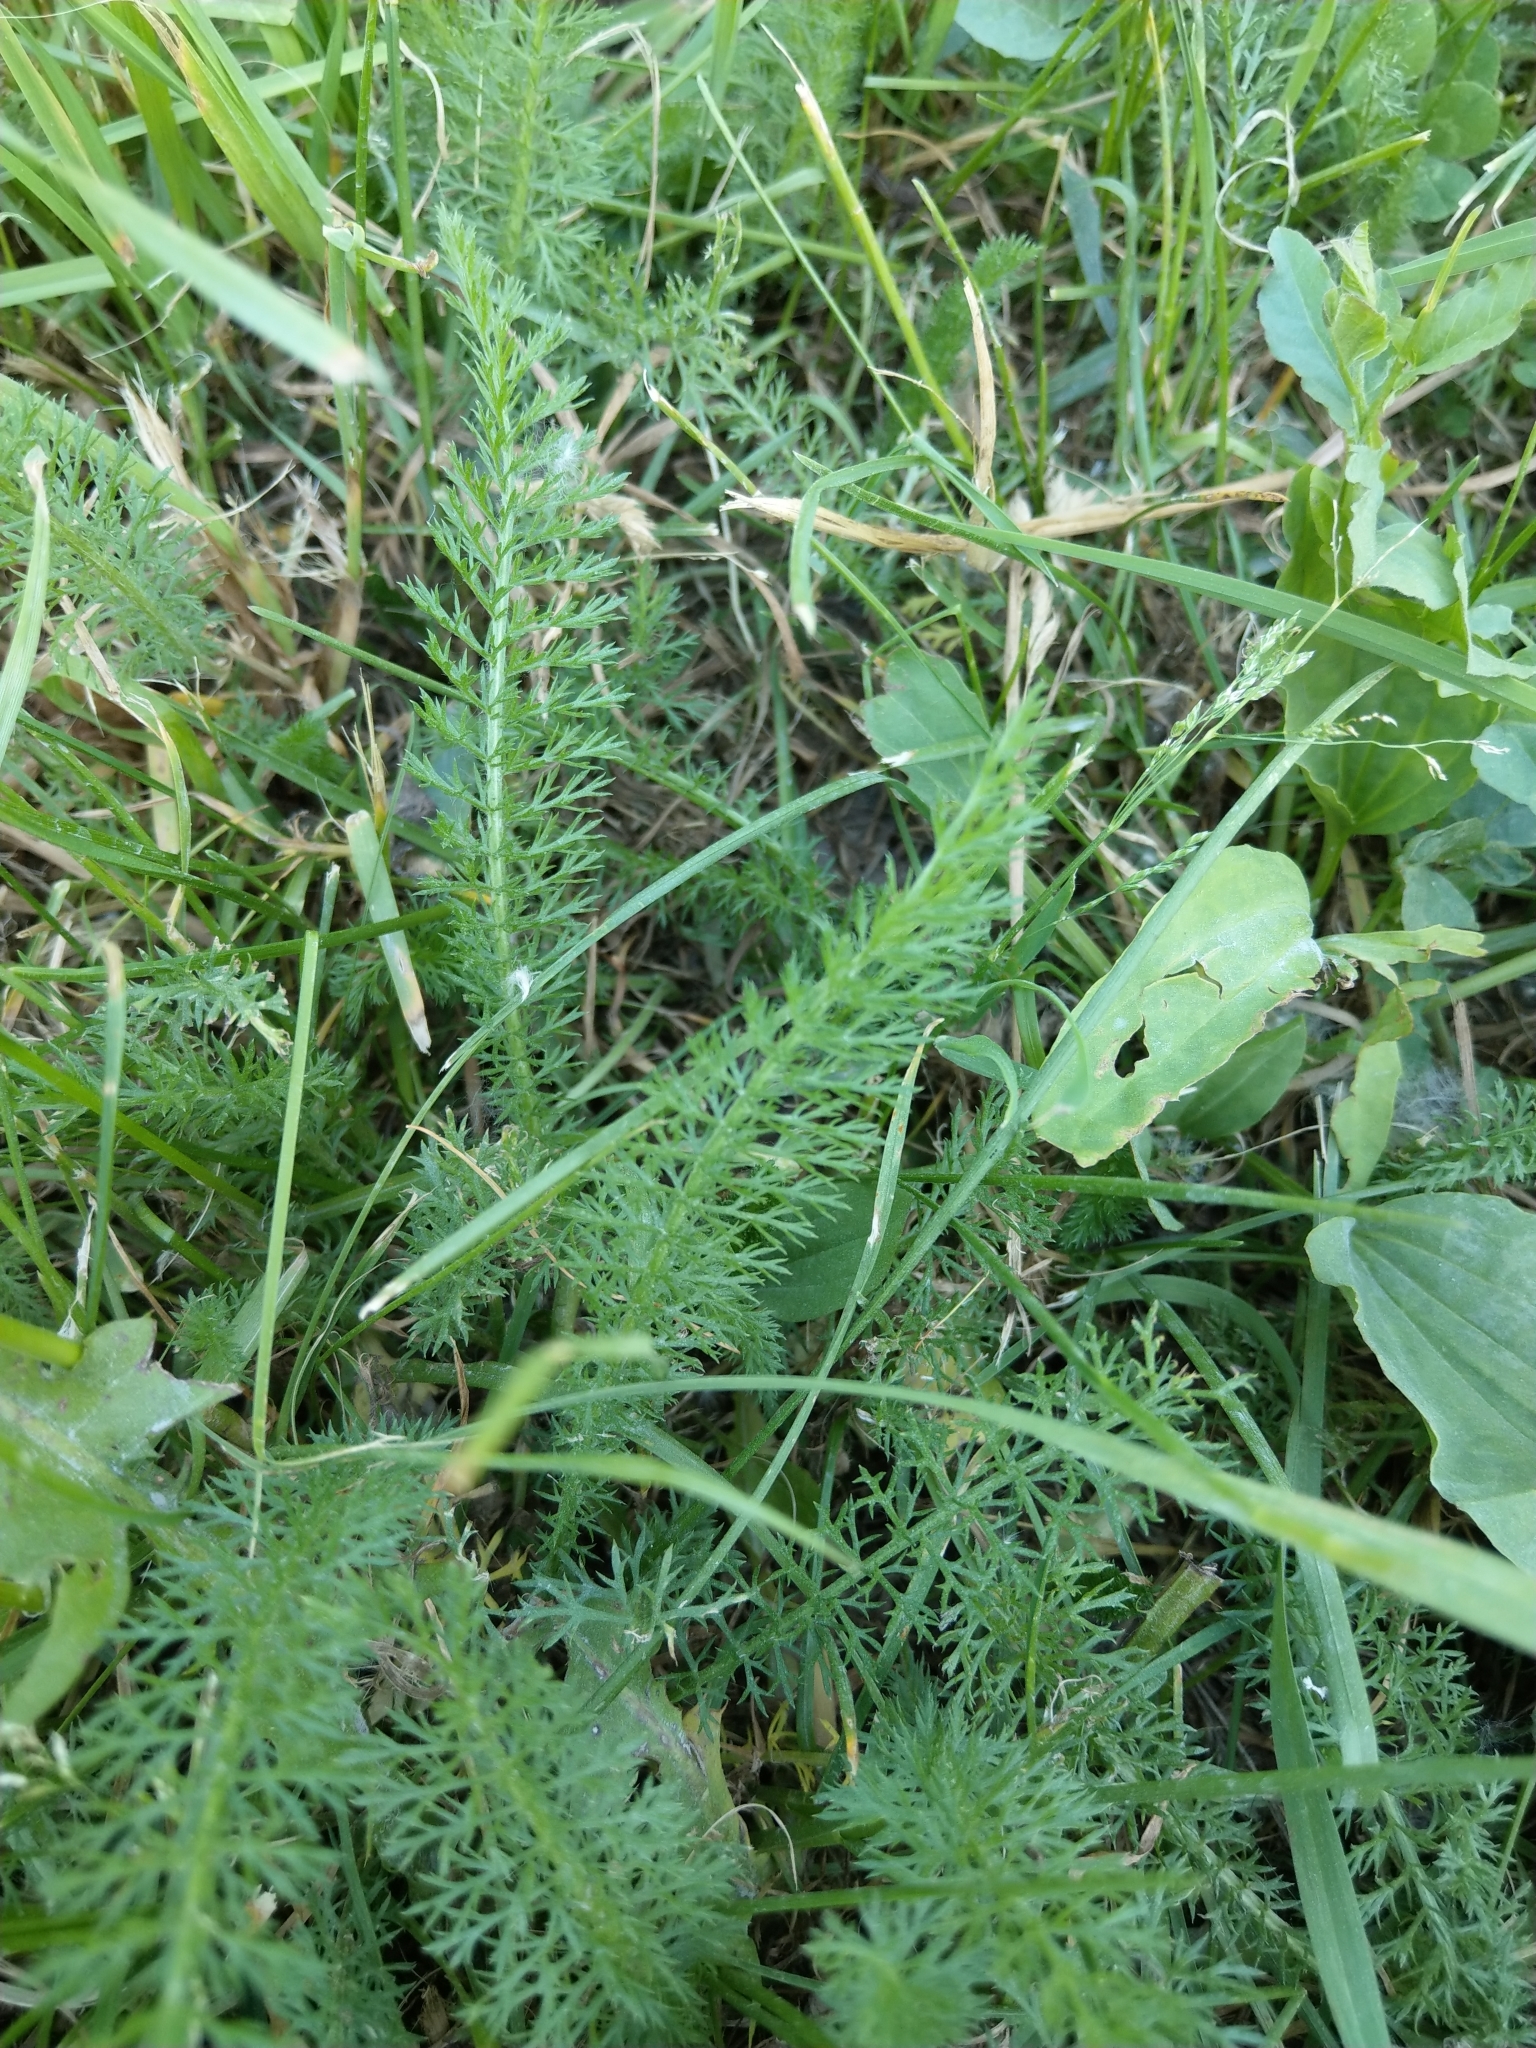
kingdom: Plantae
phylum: Tracheophyta
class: Magnoliopsida
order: Asterales
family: Asteraceae
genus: Achillea
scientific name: Achillea millefolium
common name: Yarrow
